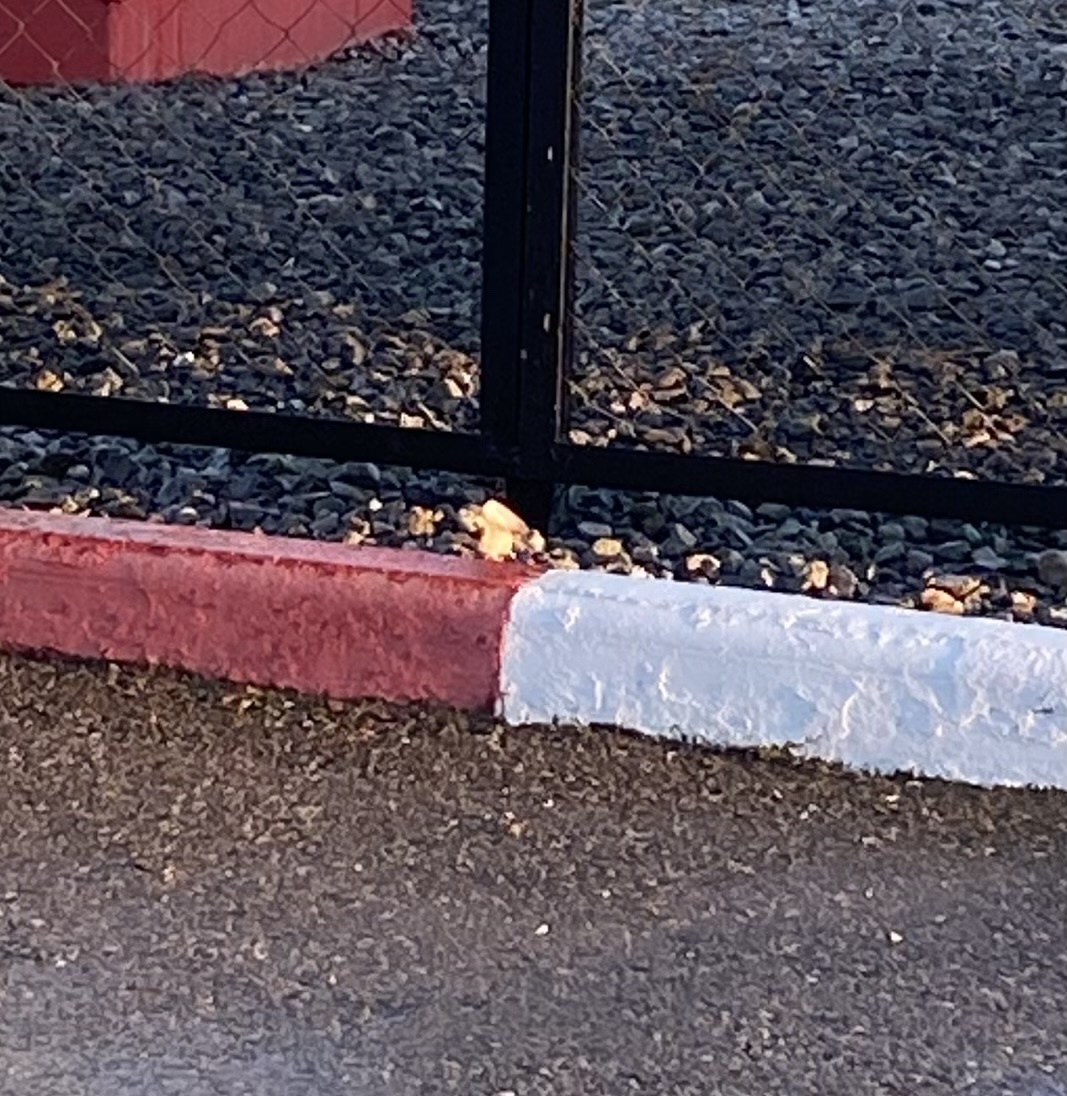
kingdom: Animalia
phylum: Chordata
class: Aves
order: Passeriformes
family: Motacillidae
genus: Motacilla
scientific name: Motacilla alba
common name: White wagtail
